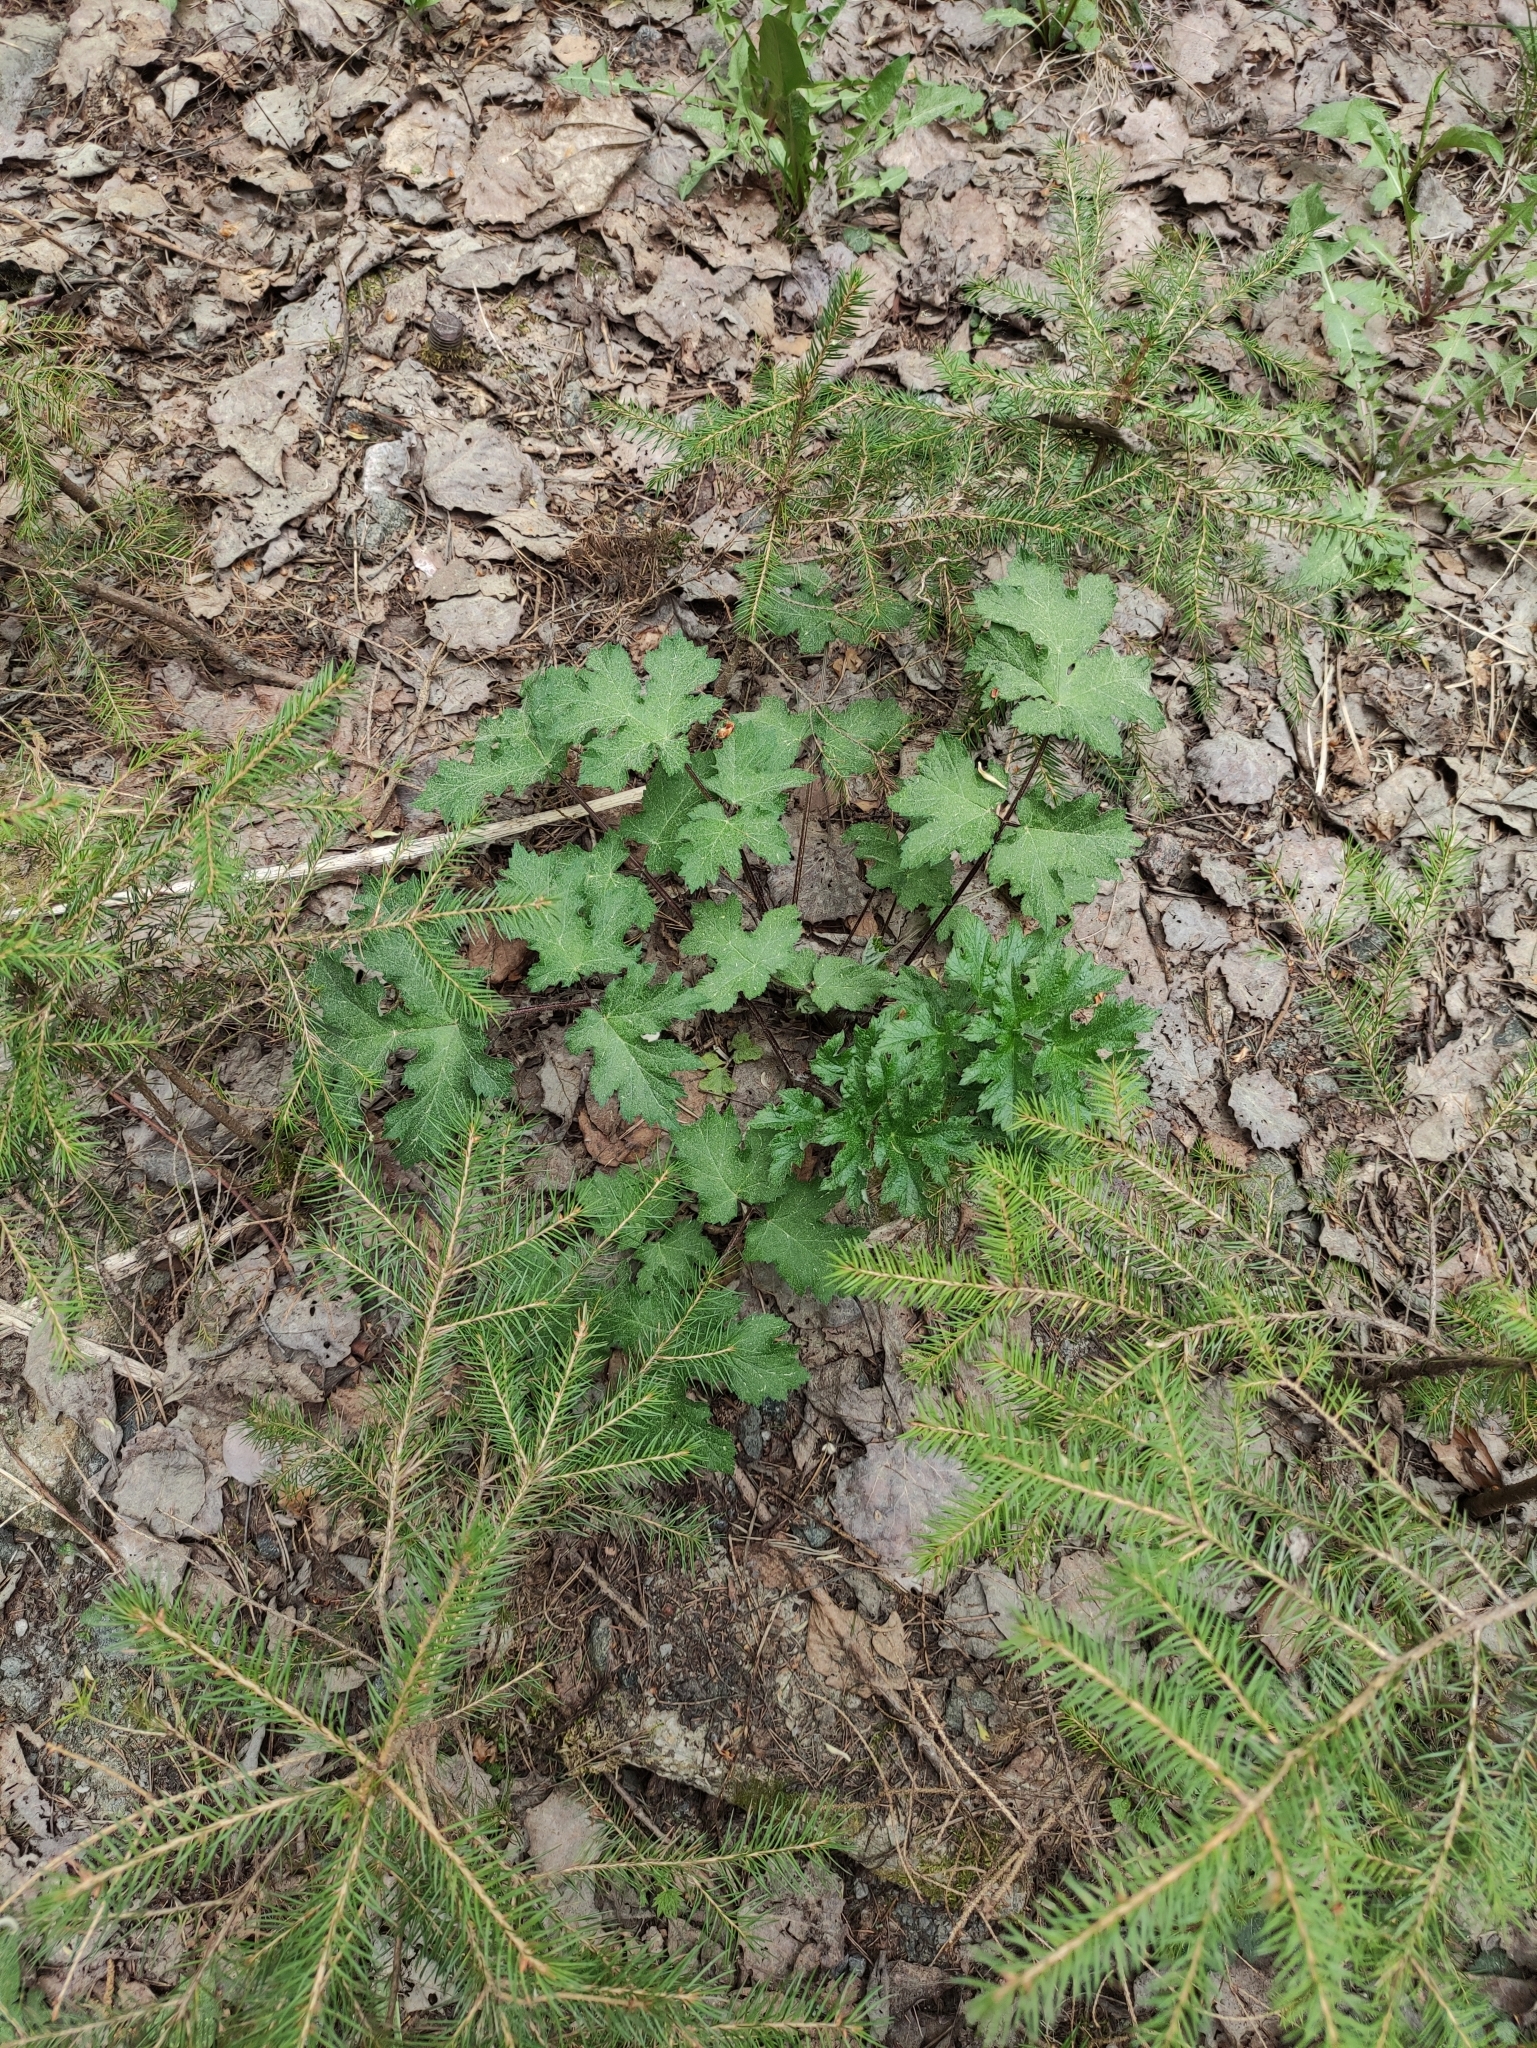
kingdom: Plantae
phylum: Tracheophyta
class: Magnoliopsida
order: Apiales
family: Apiaceae
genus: Heracleum
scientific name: Heracleum sphondylium
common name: Hogweed
